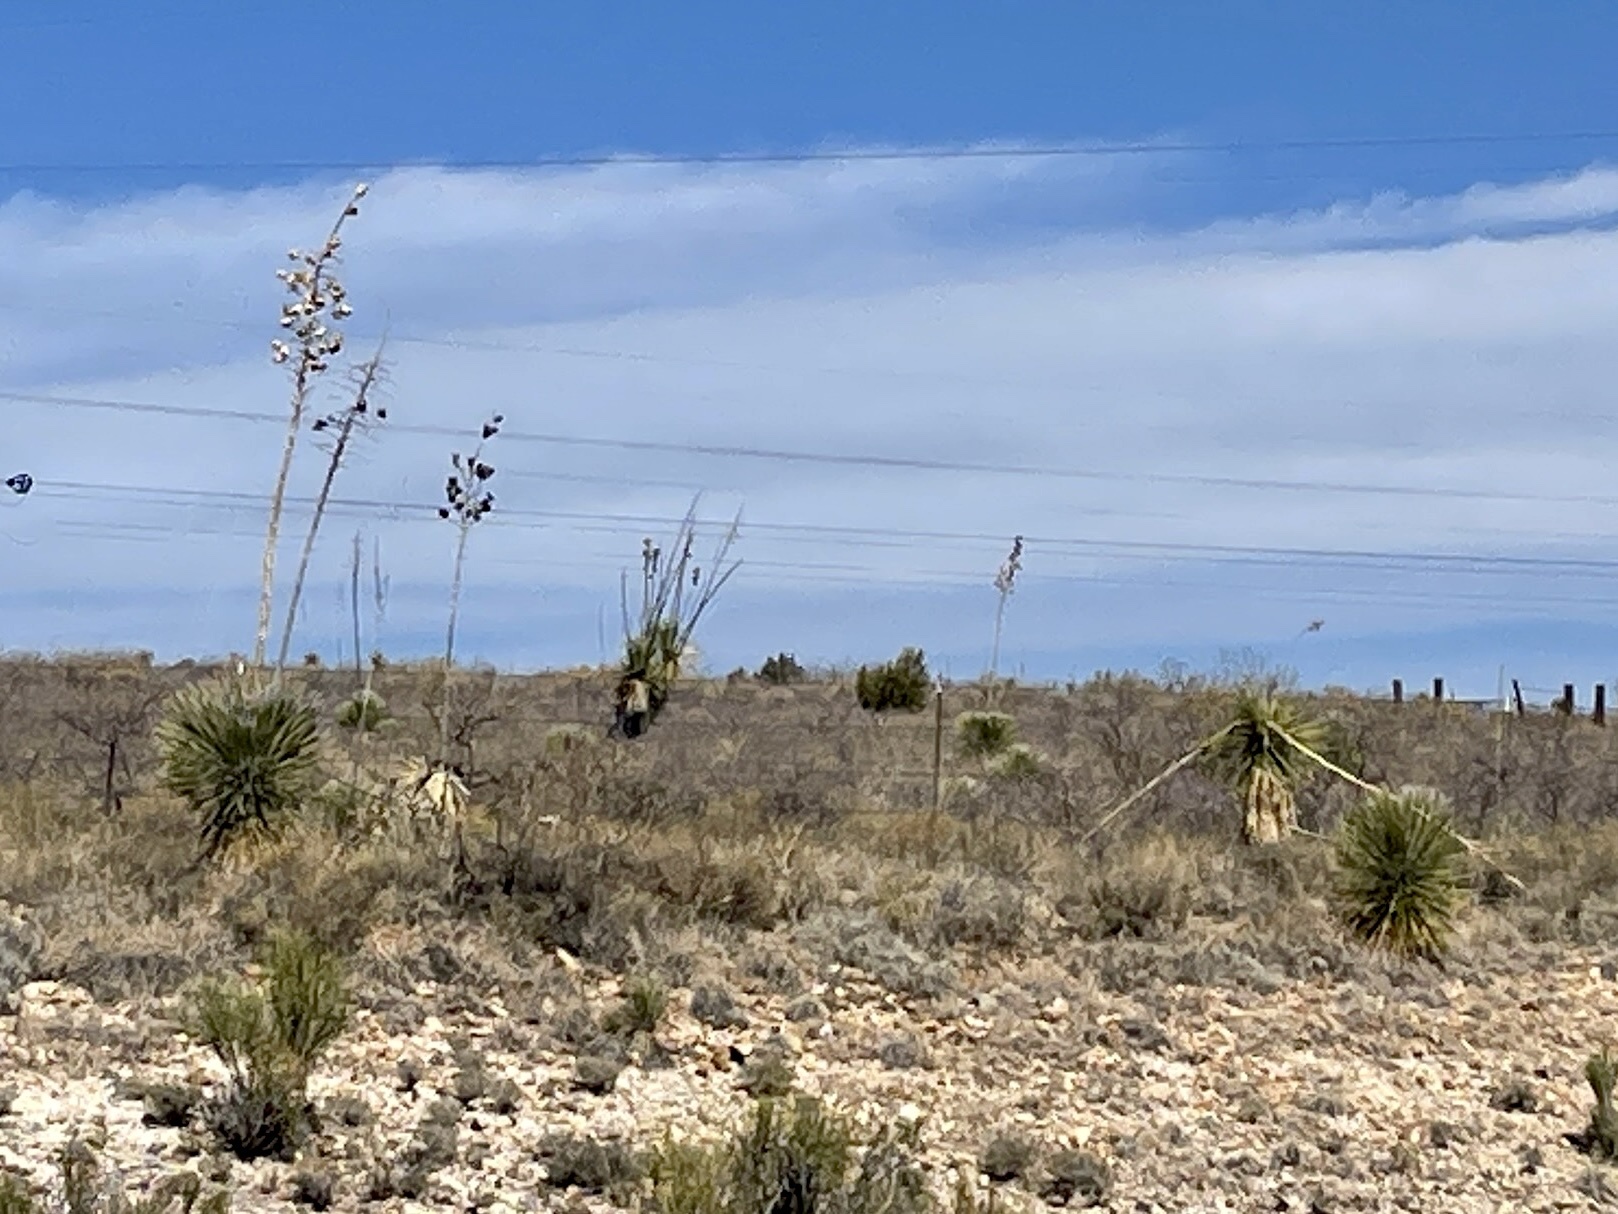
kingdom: Plantae
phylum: Tracheophyta
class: Liliopsida
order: Asparagales
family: Asparagaceae
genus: Yucca
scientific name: Yucca elata
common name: Palmella
